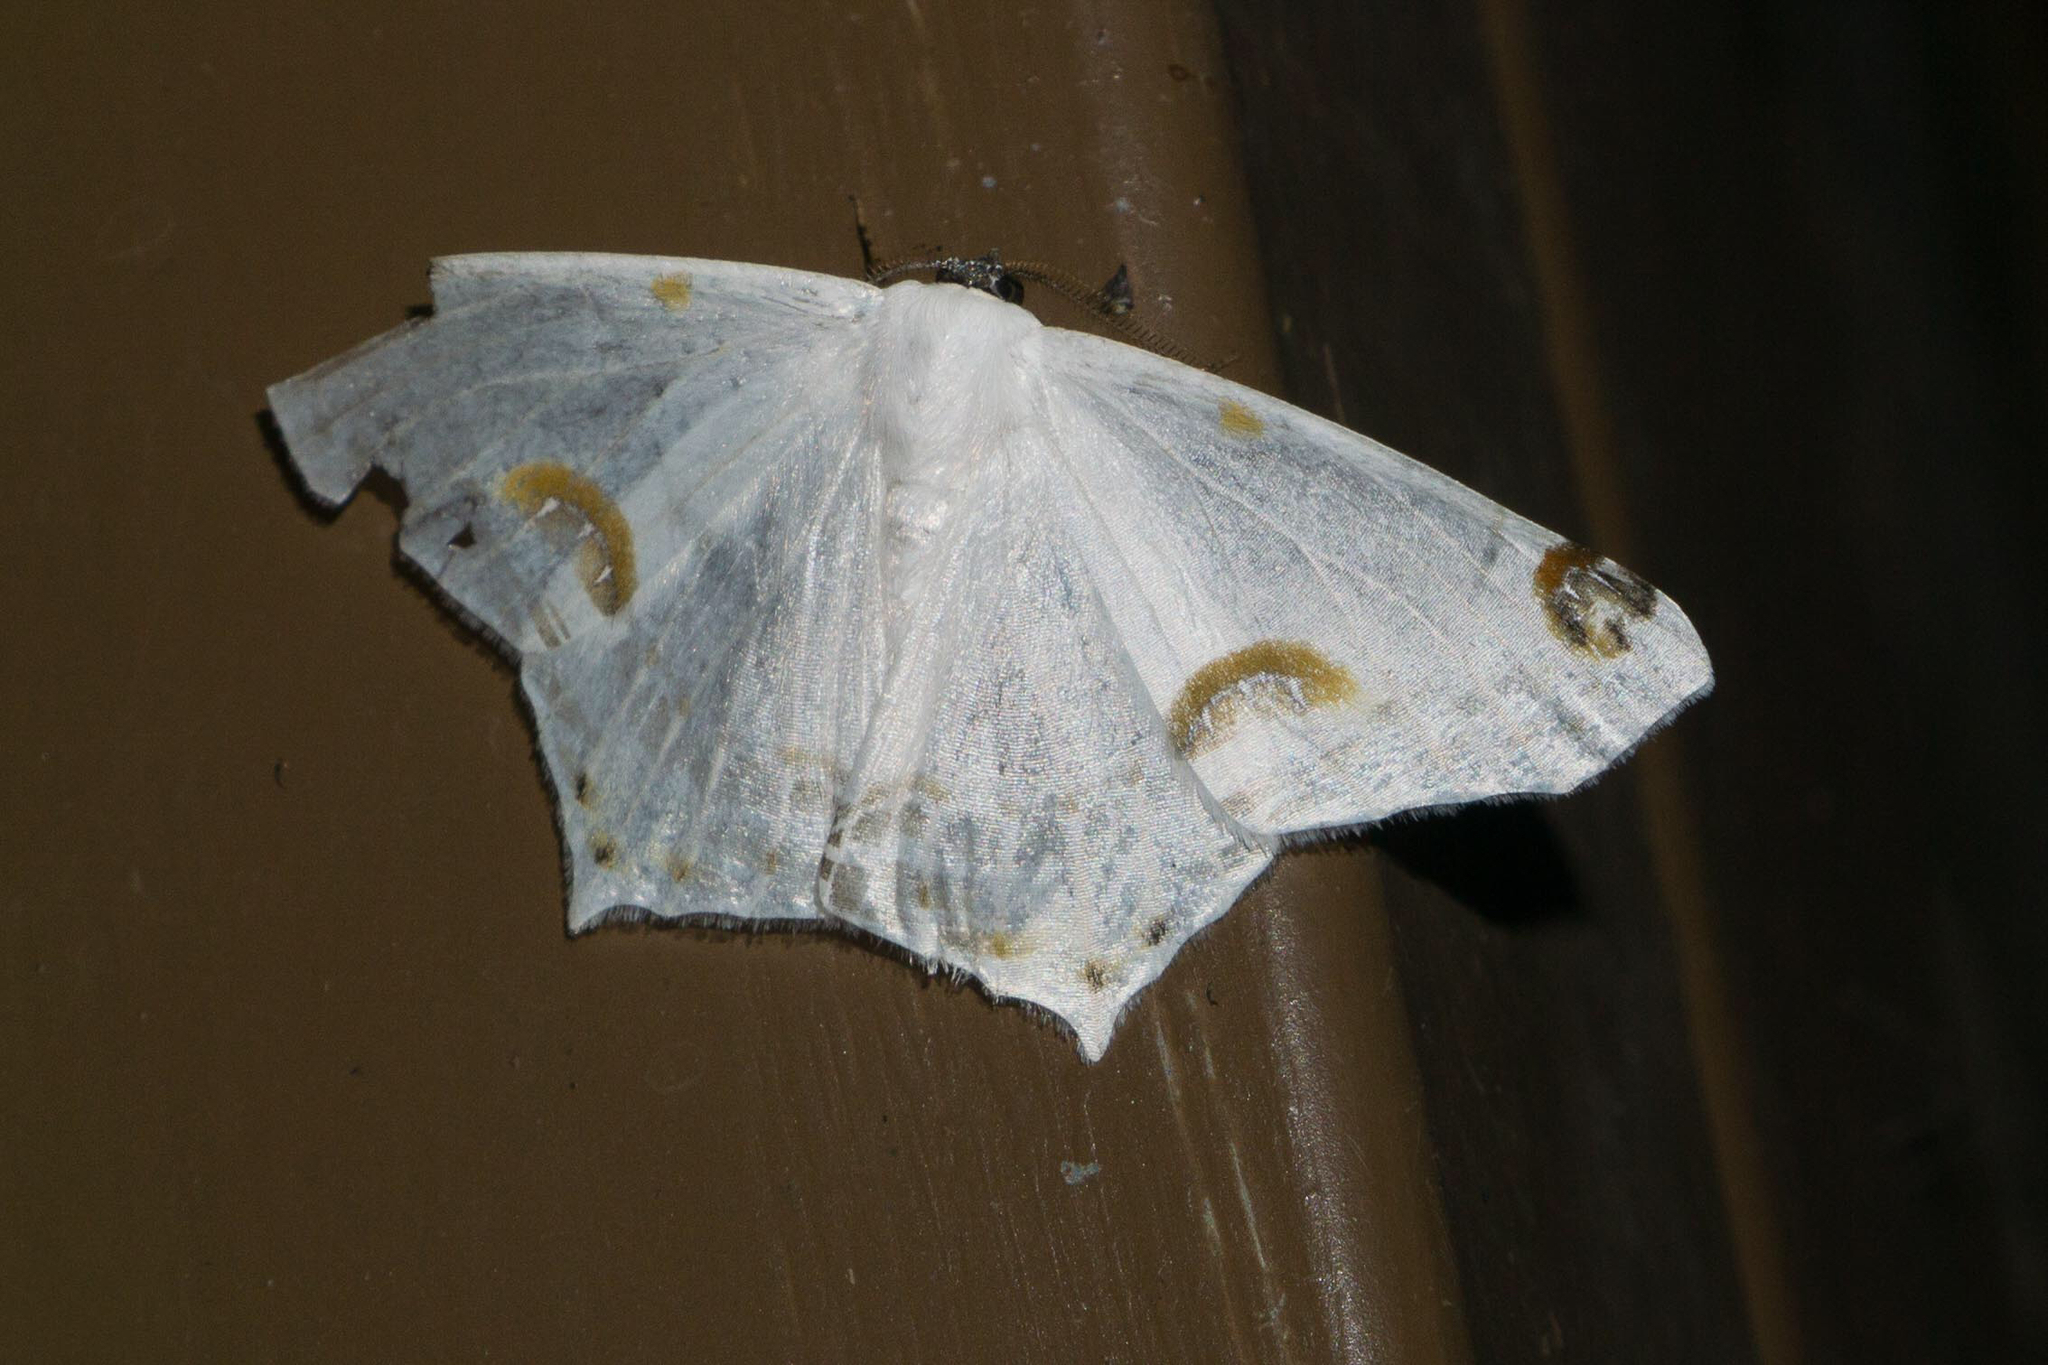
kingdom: Animalia
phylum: Arthropoda
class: Insecta
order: Lepidoptera
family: Geometridae
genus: Sericoptera
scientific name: Sericoptera mahometaria
